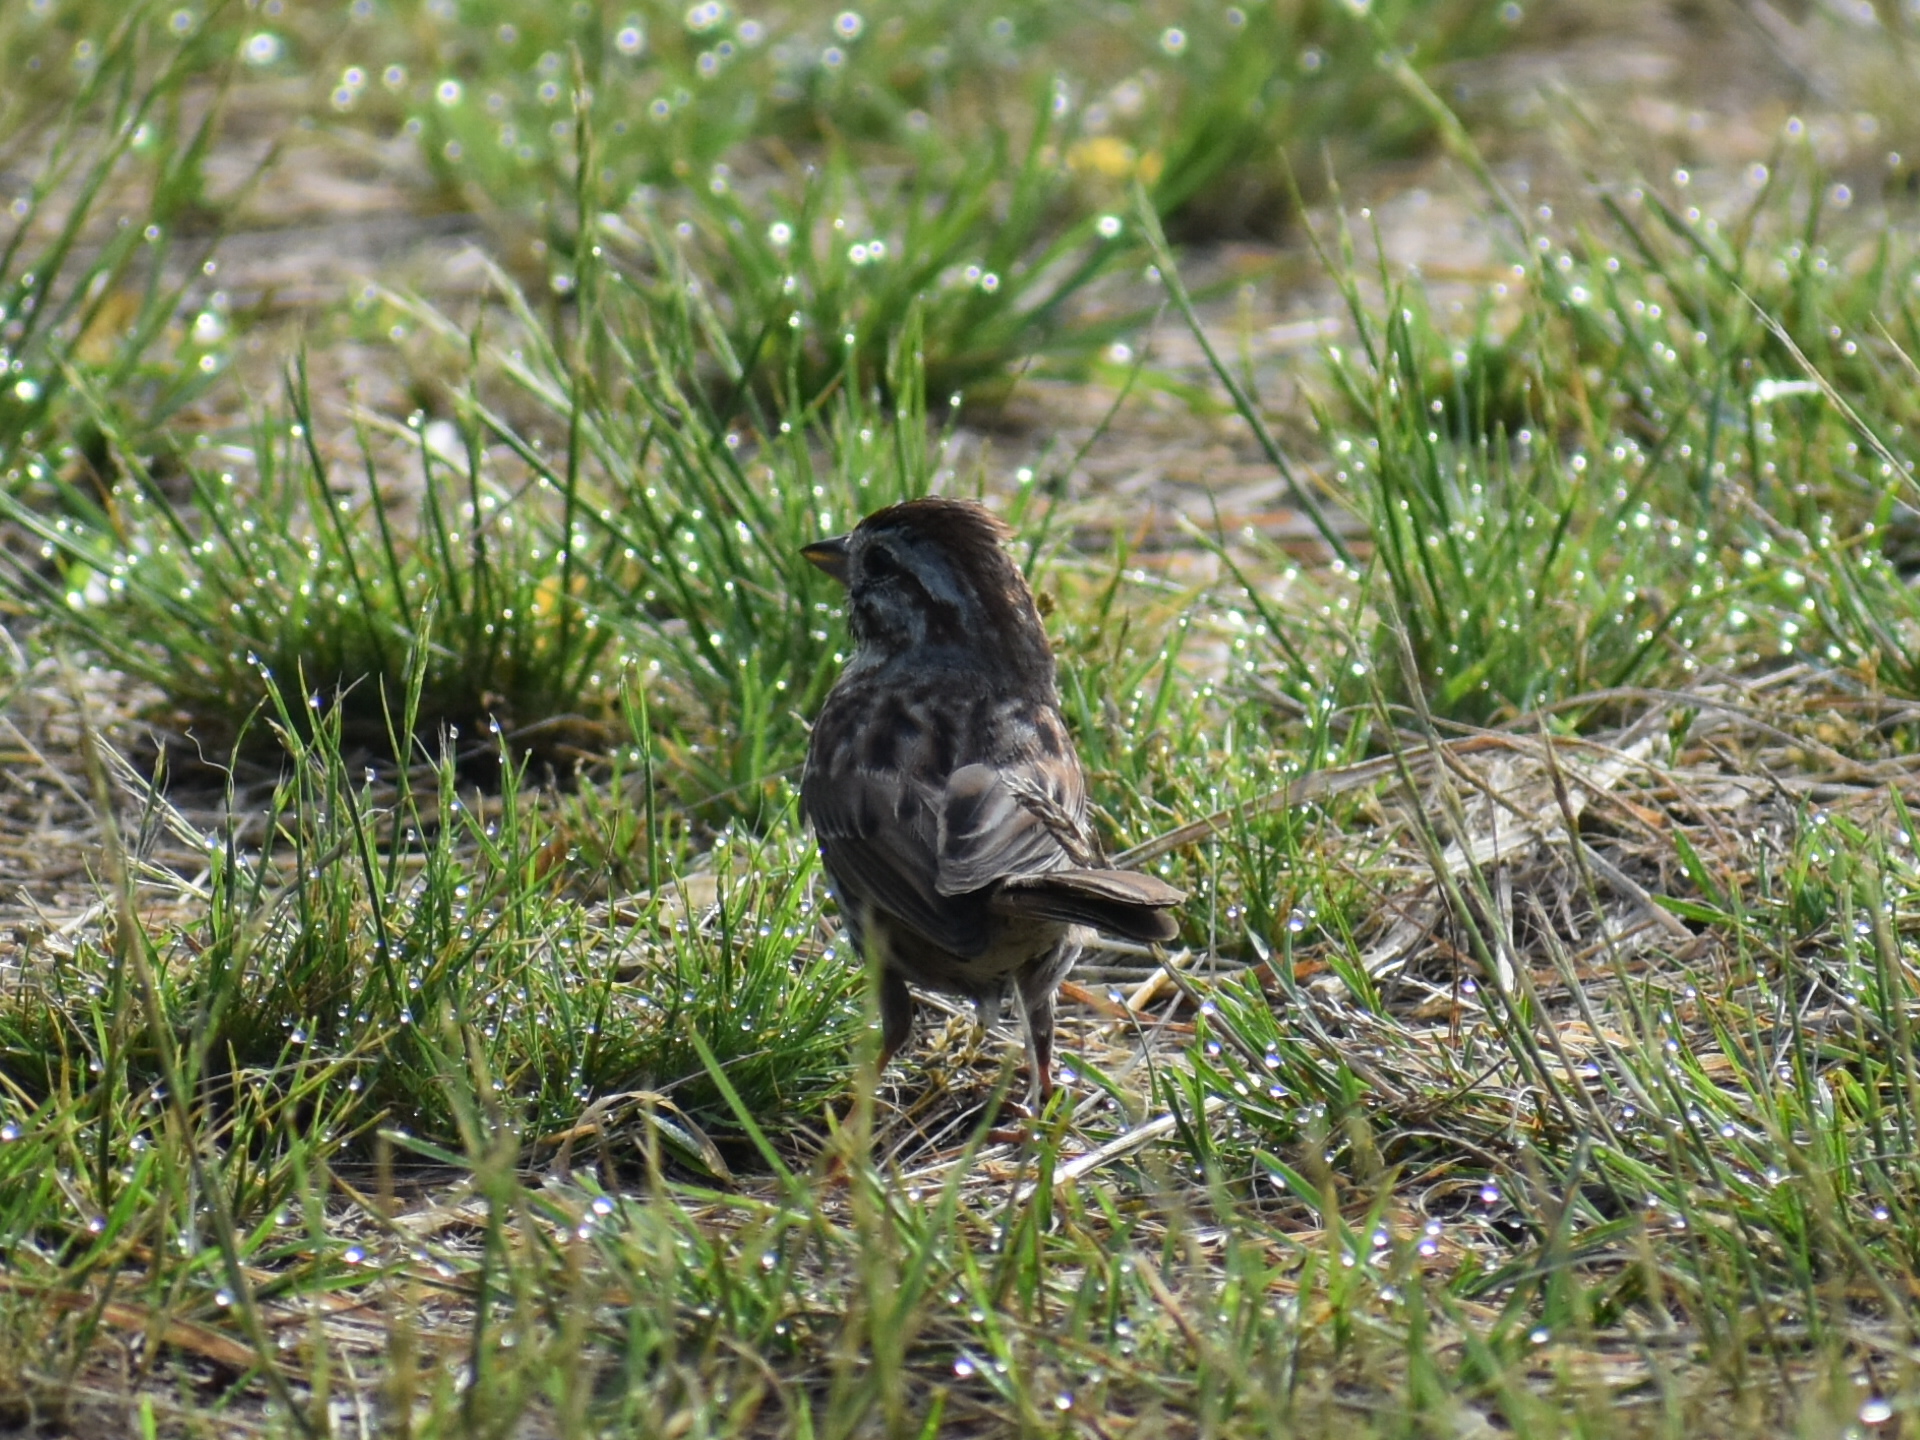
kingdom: Animalia
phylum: Chordata
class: Aves
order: Passeriformes
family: Passerellidae
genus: Melospiza
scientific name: Melospiza melodia
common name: Song sparrow
